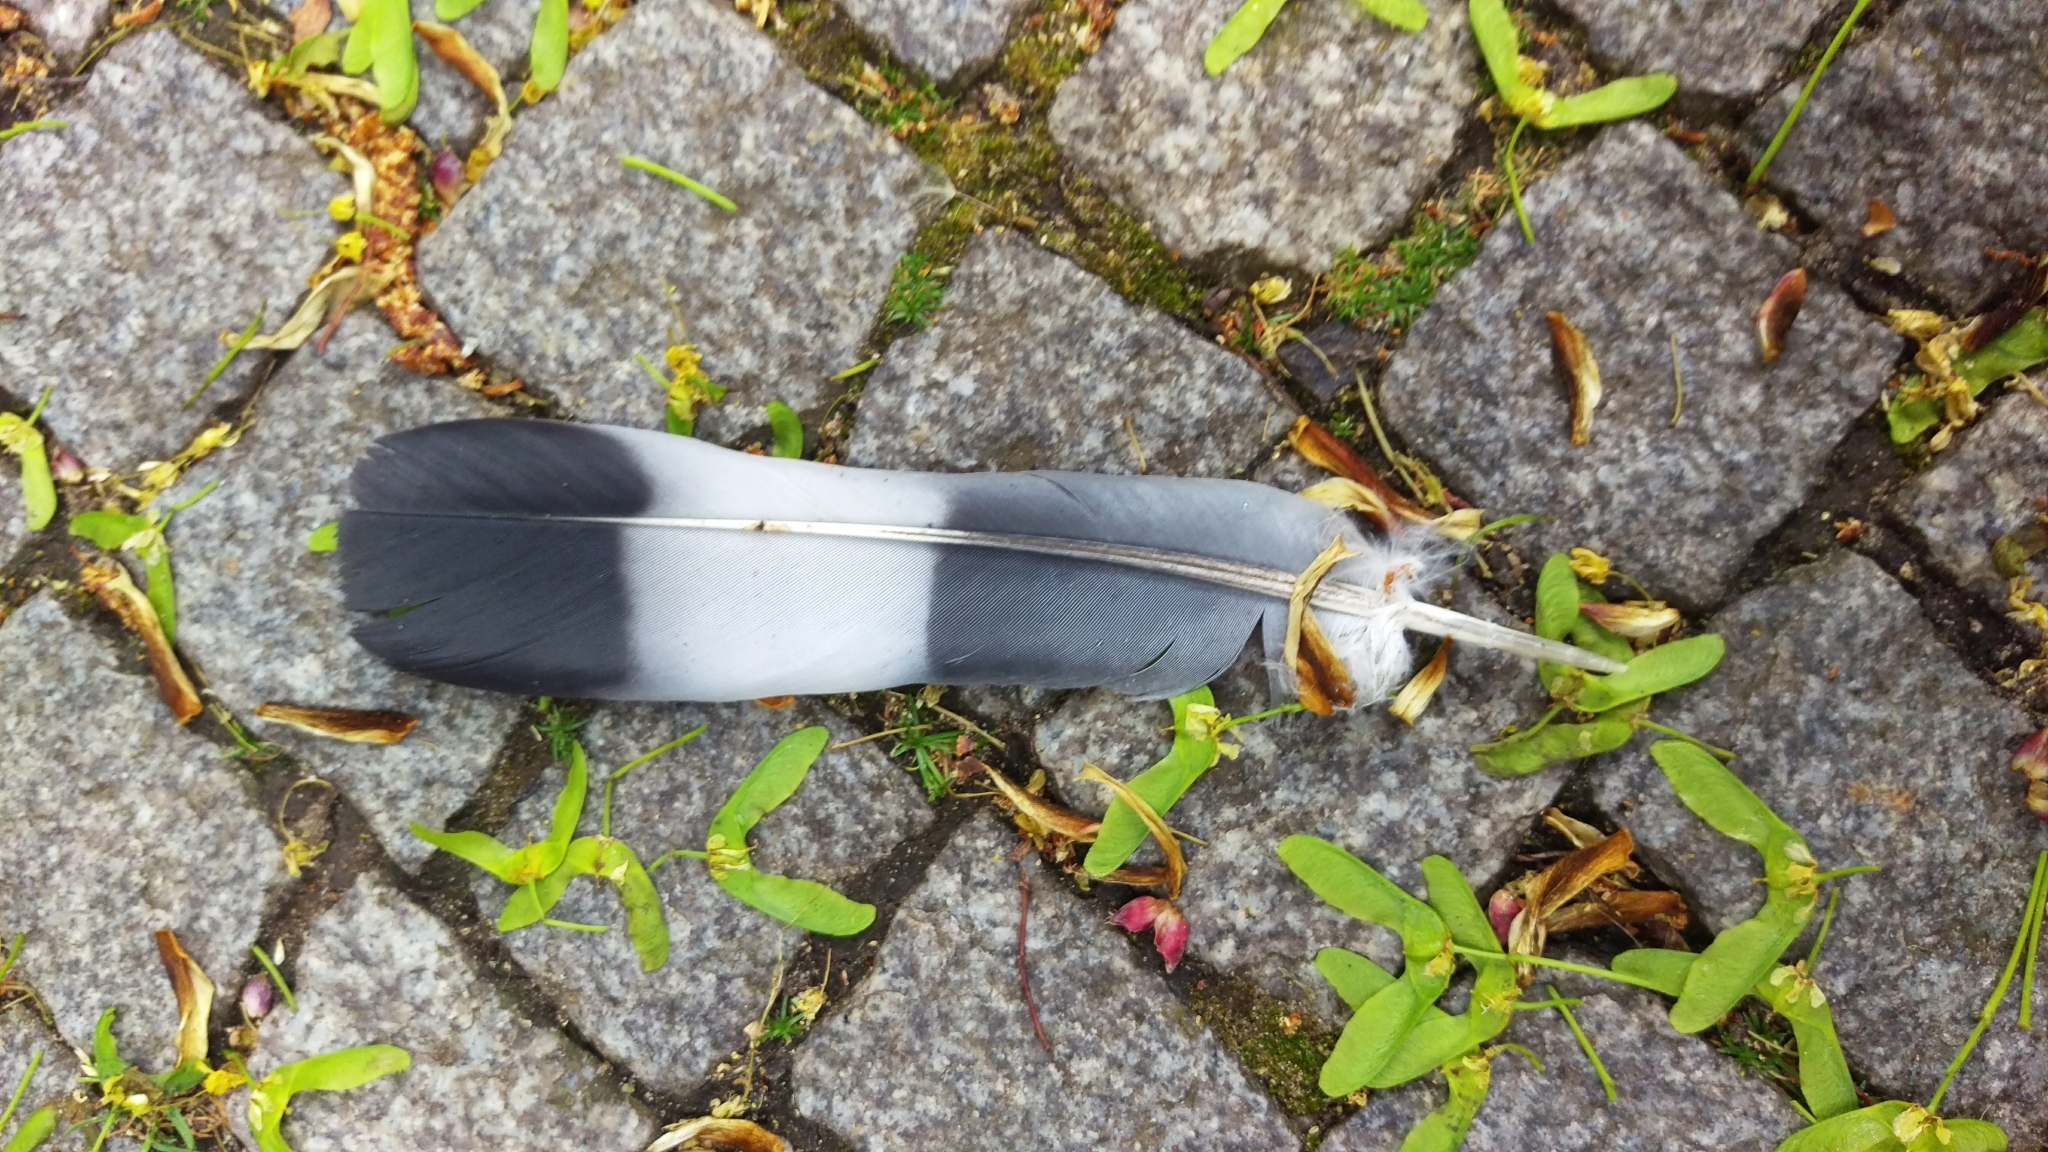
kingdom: Animalia
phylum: Chordata
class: Aves
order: Columbiformes
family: Columbidae
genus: Columba
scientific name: Columba palumbus
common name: Common wood pigeon
